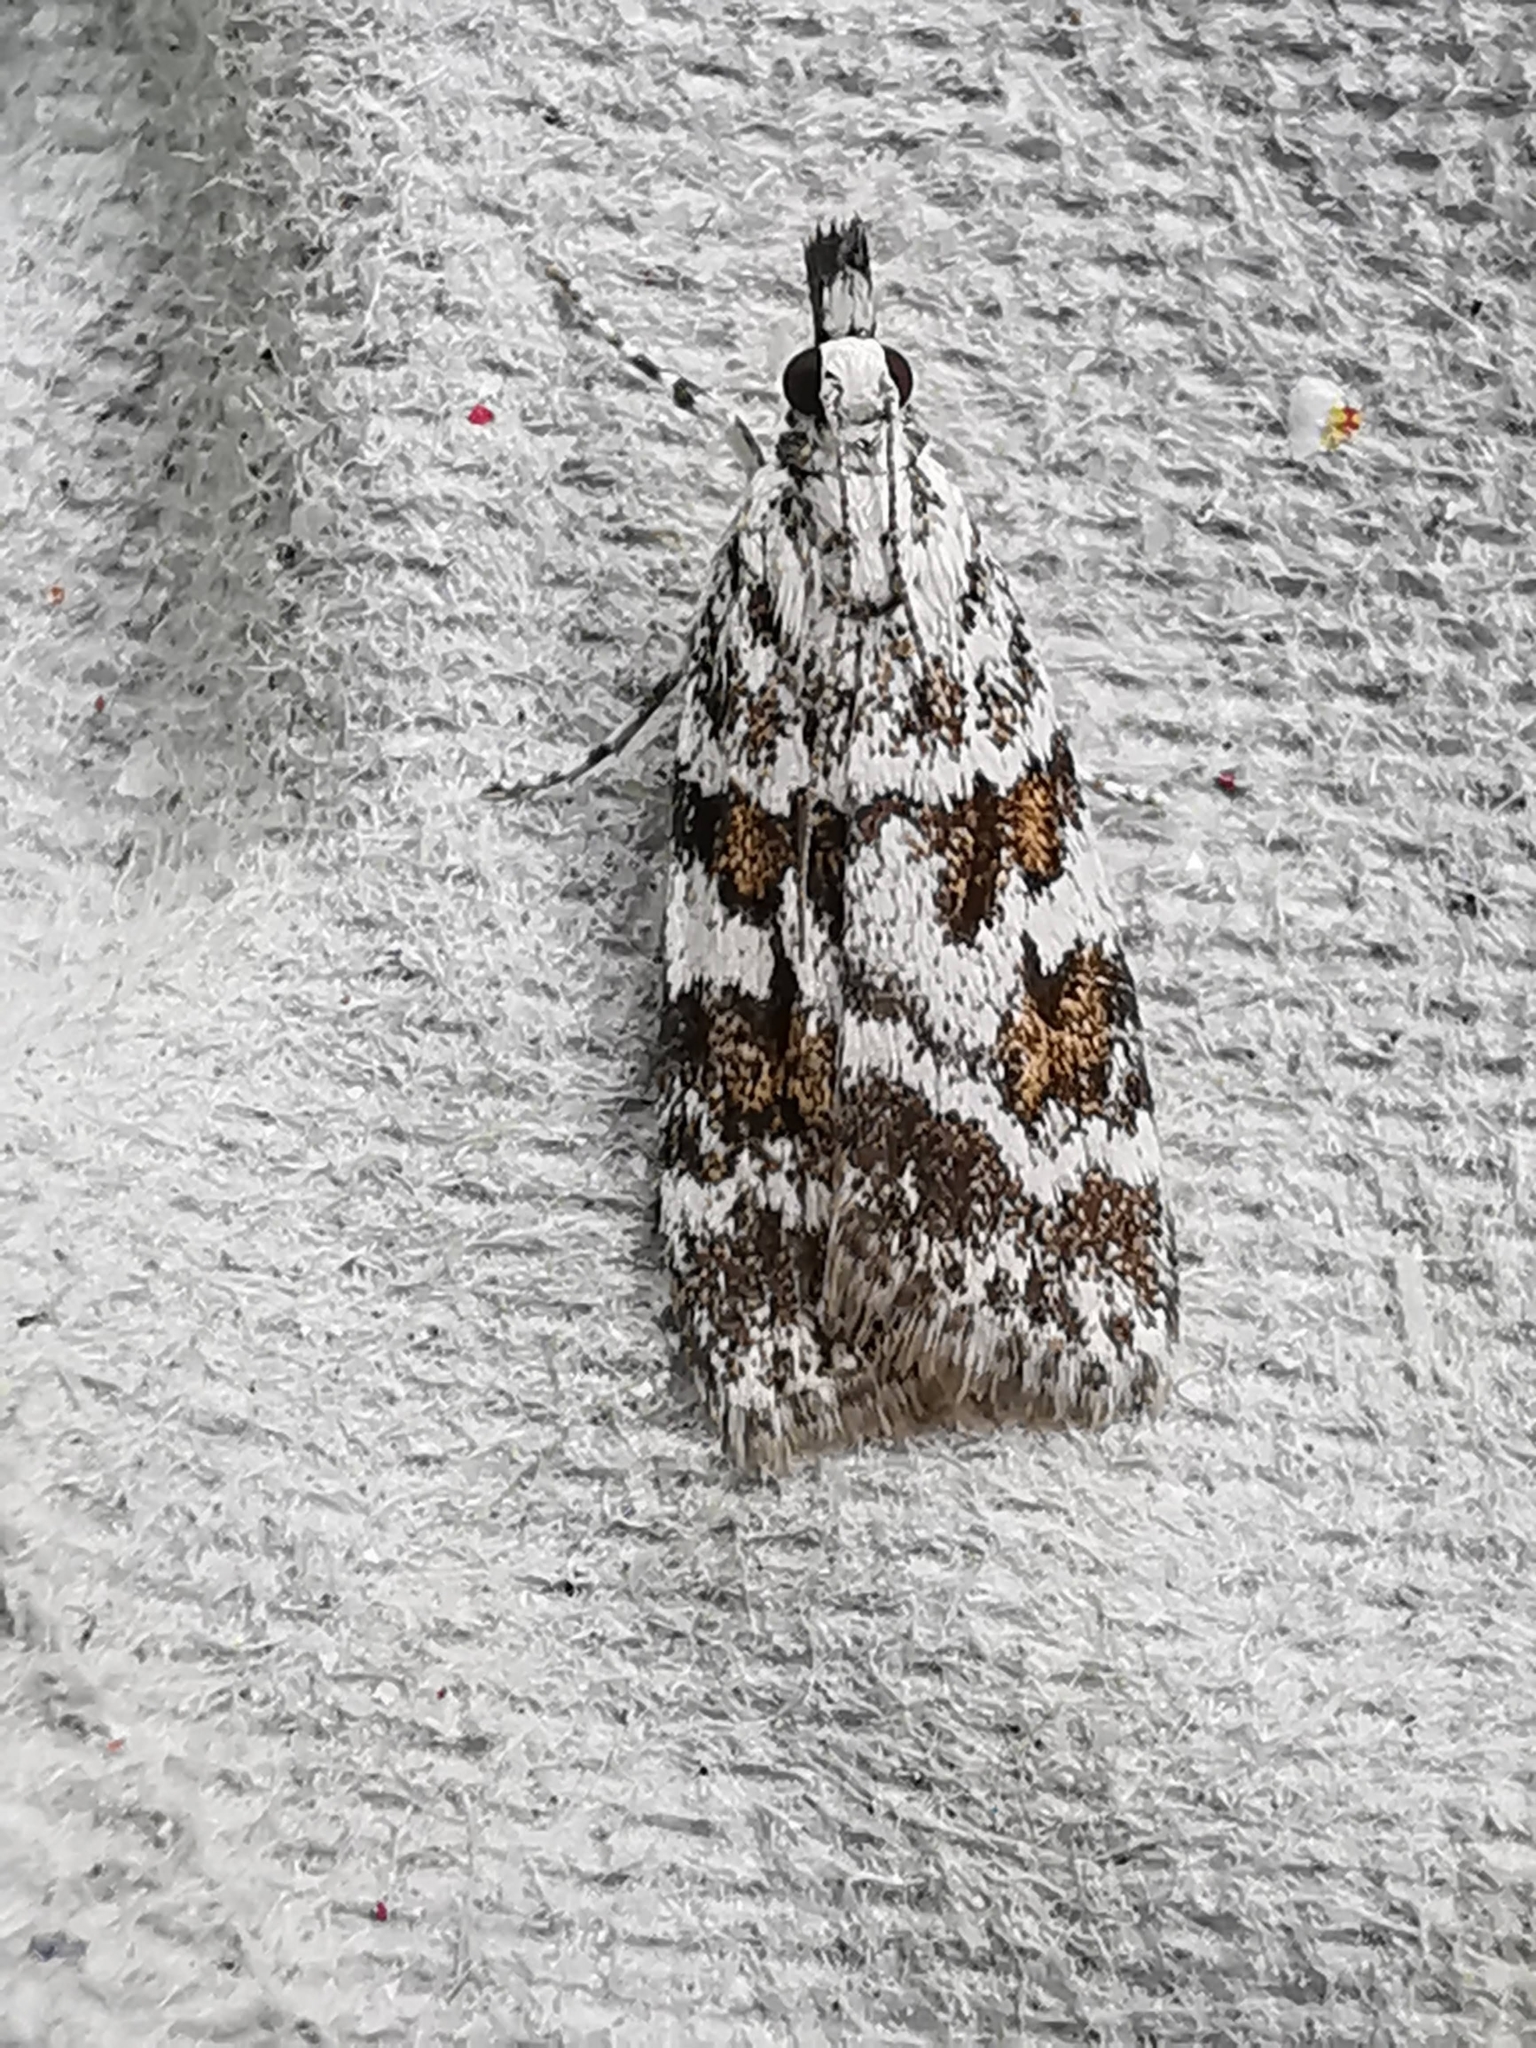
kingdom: Animalia
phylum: Arthropoda
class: Insecta
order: Lepidoptera
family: Crambidae
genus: Scoparia
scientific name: Scoparia pyralella
